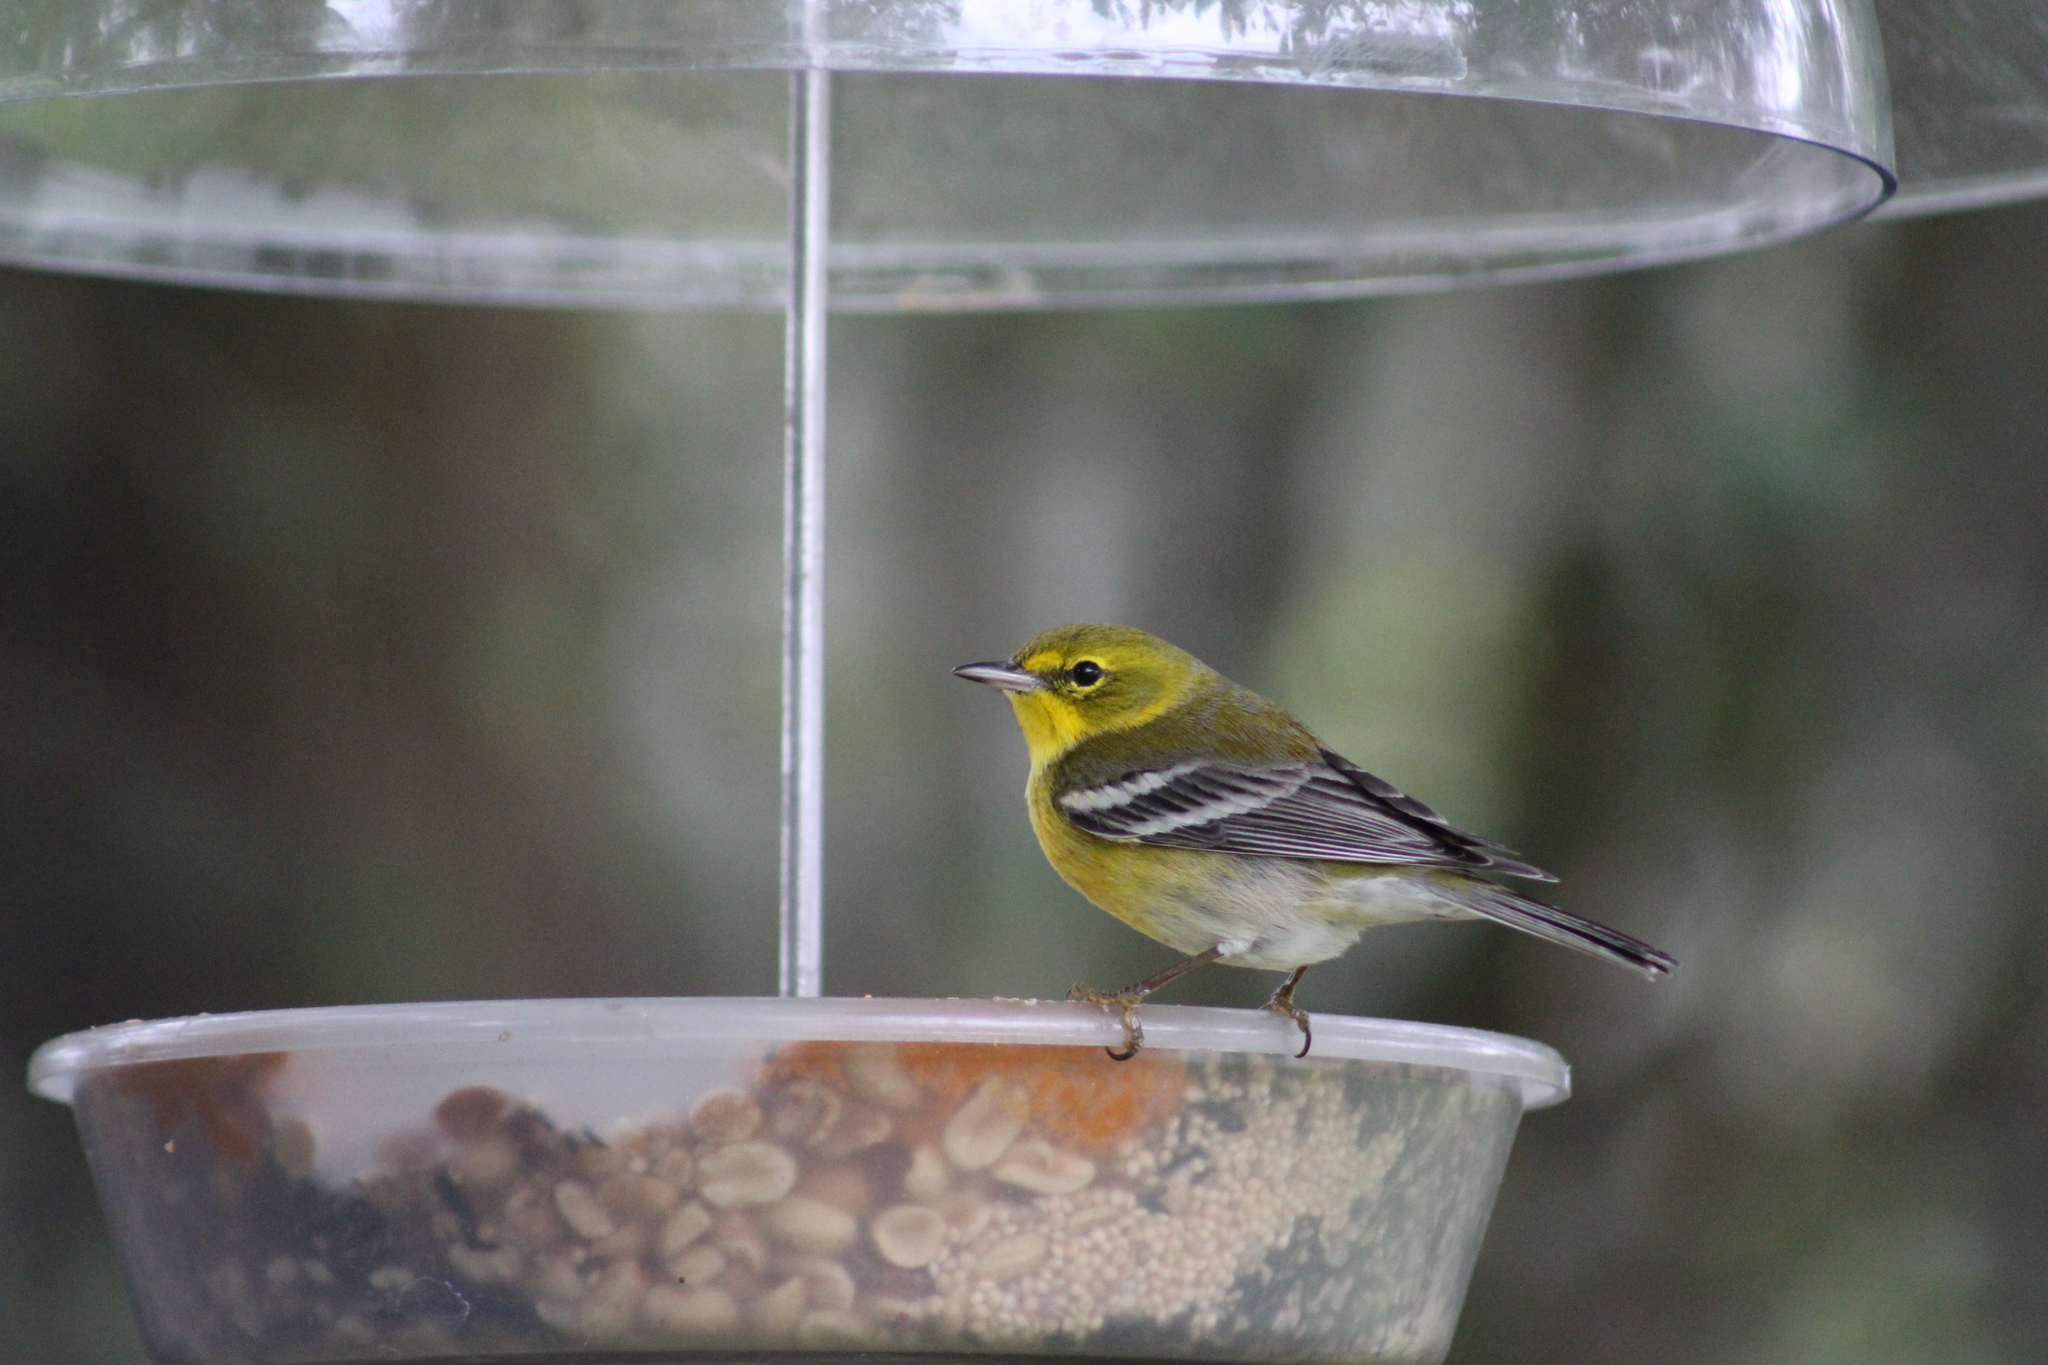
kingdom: Animalia
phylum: Chordata
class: Aves
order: Passeriformes
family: Parulidae
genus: Setophaga
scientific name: Setophaga pinus
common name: Pine warbler
